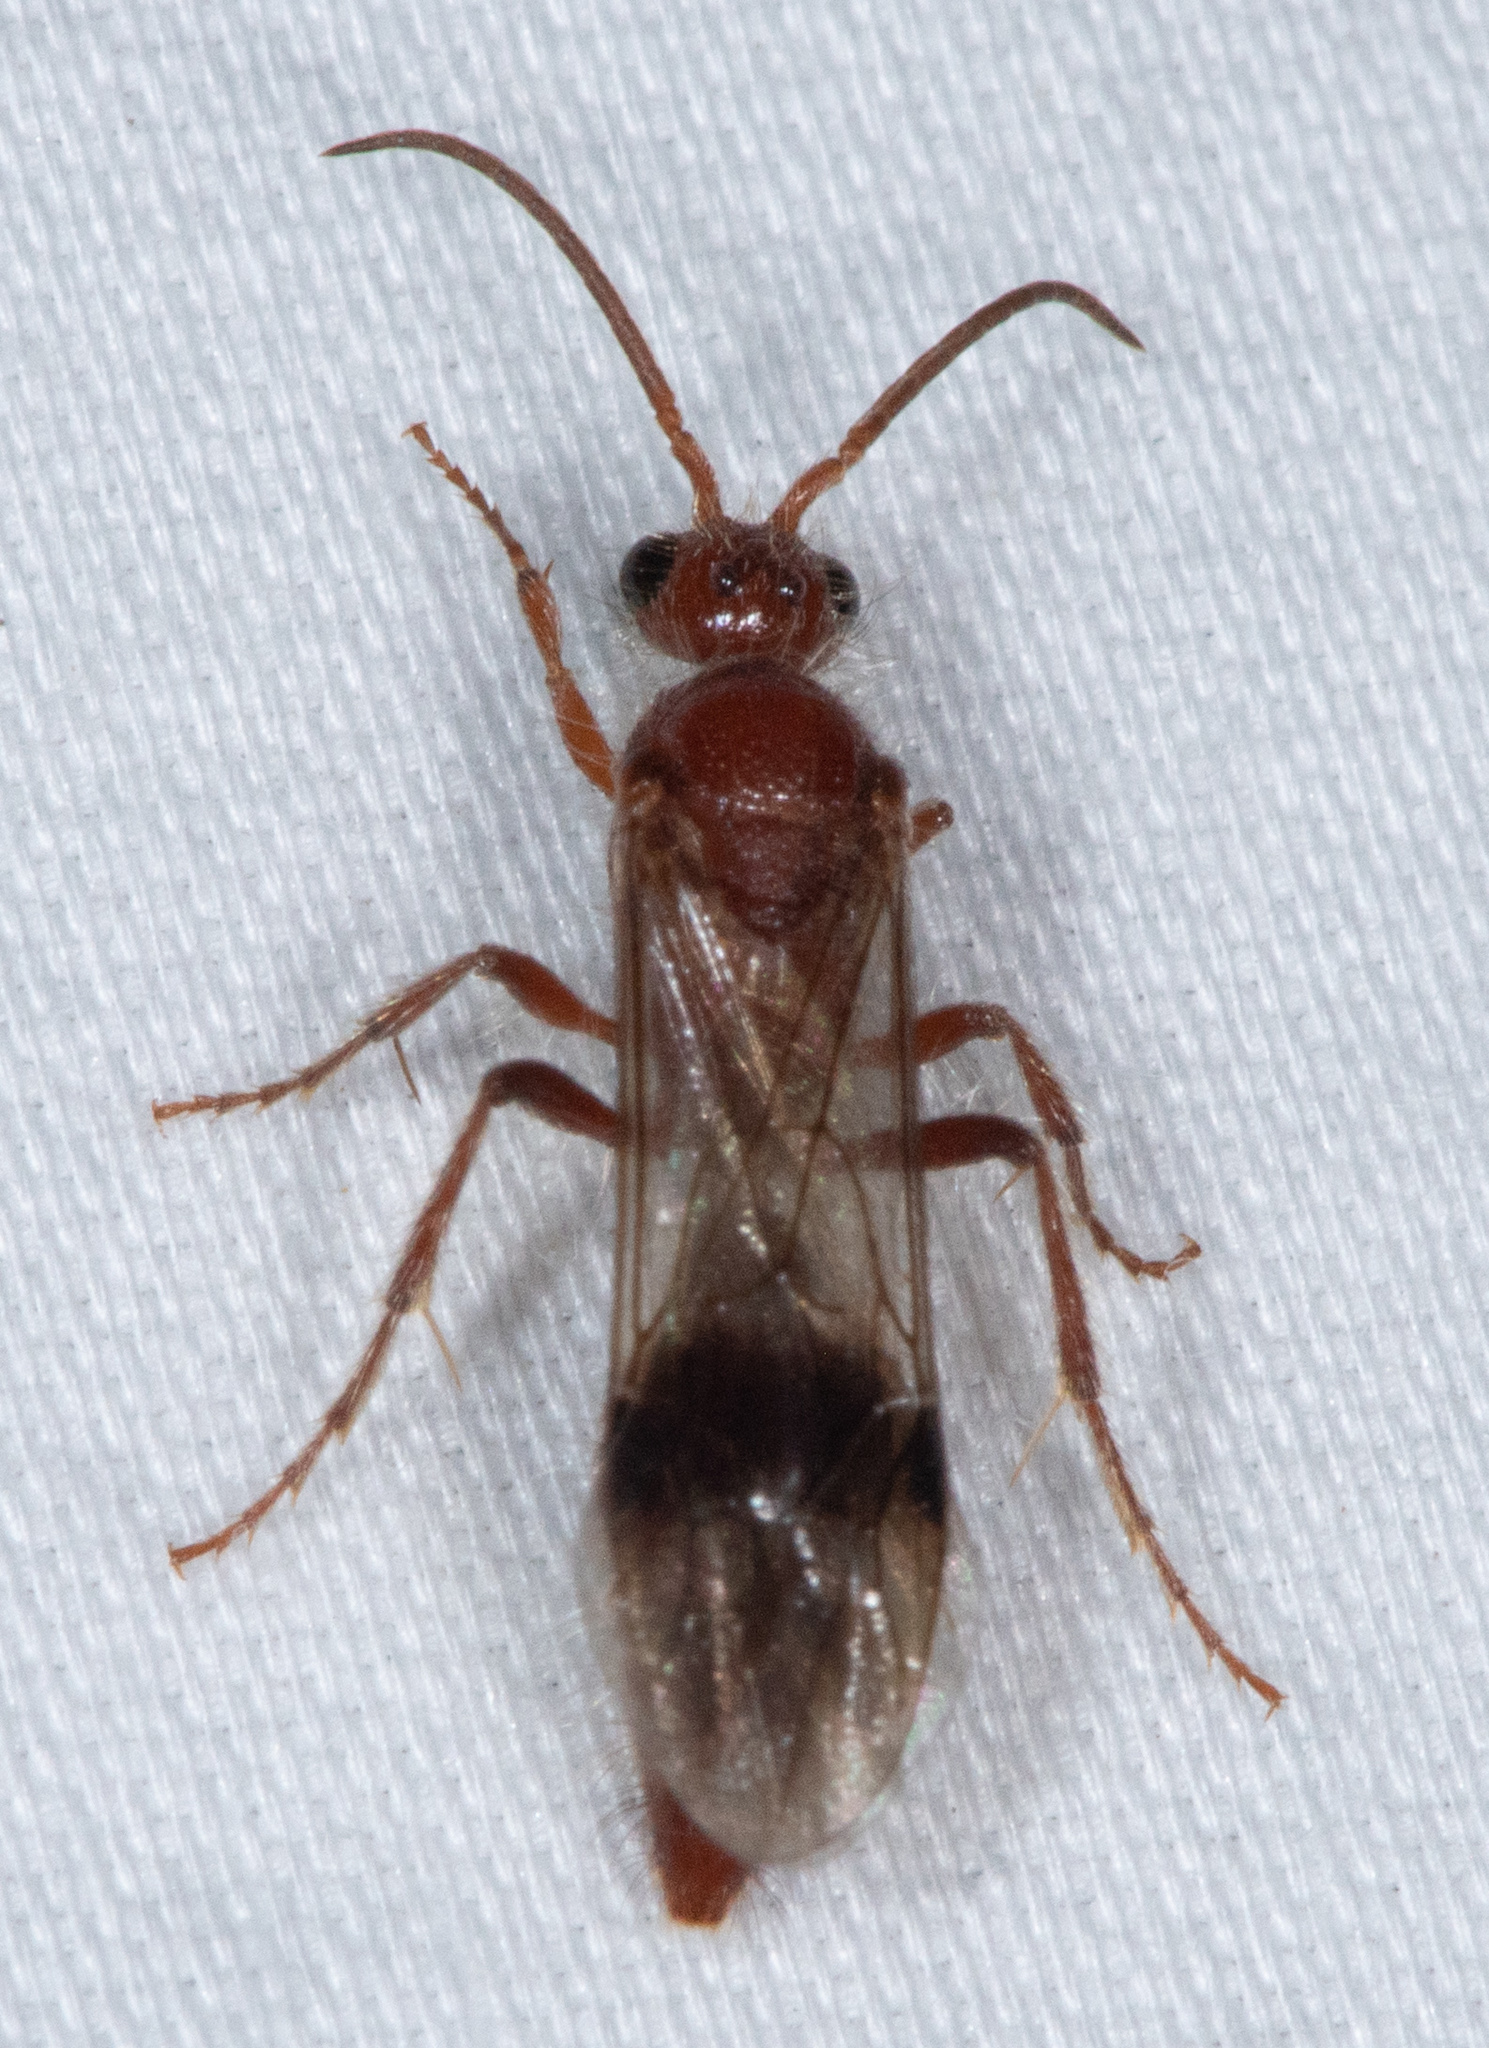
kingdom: Animalia
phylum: Arthropoda
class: Insecta
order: Hymenoptera
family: Mutillidae
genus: Sphaeropthalma
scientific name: Sphaeropthalma
